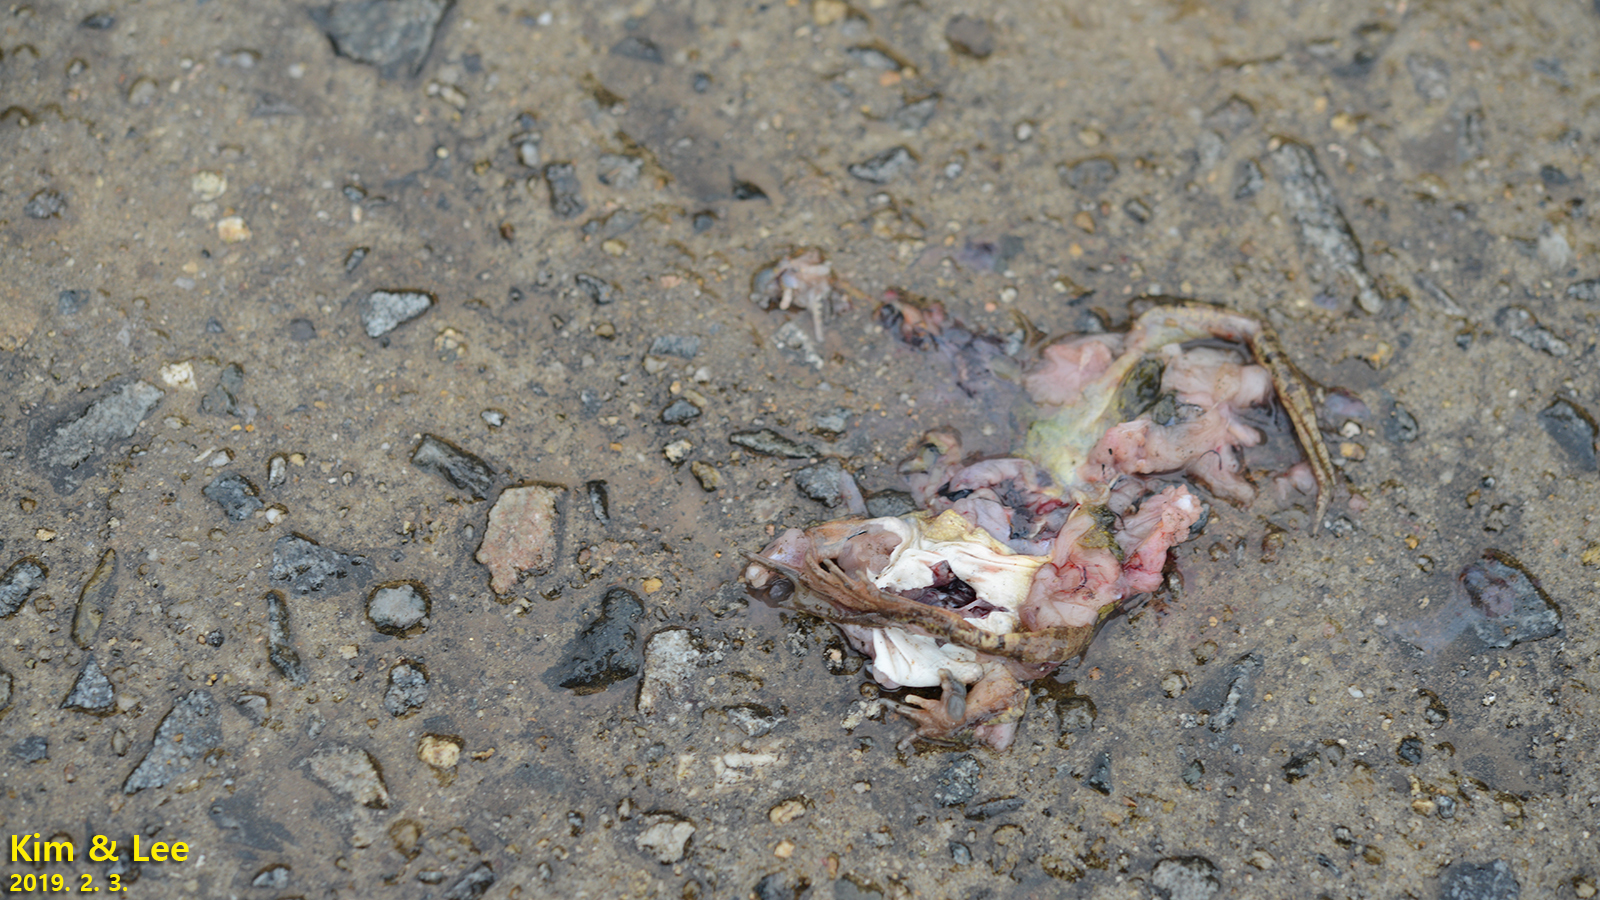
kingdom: Animalia
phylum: Chordata
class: Amphibia
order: Anura
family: Ranidae
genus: Rana
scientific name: Rana uenoi
